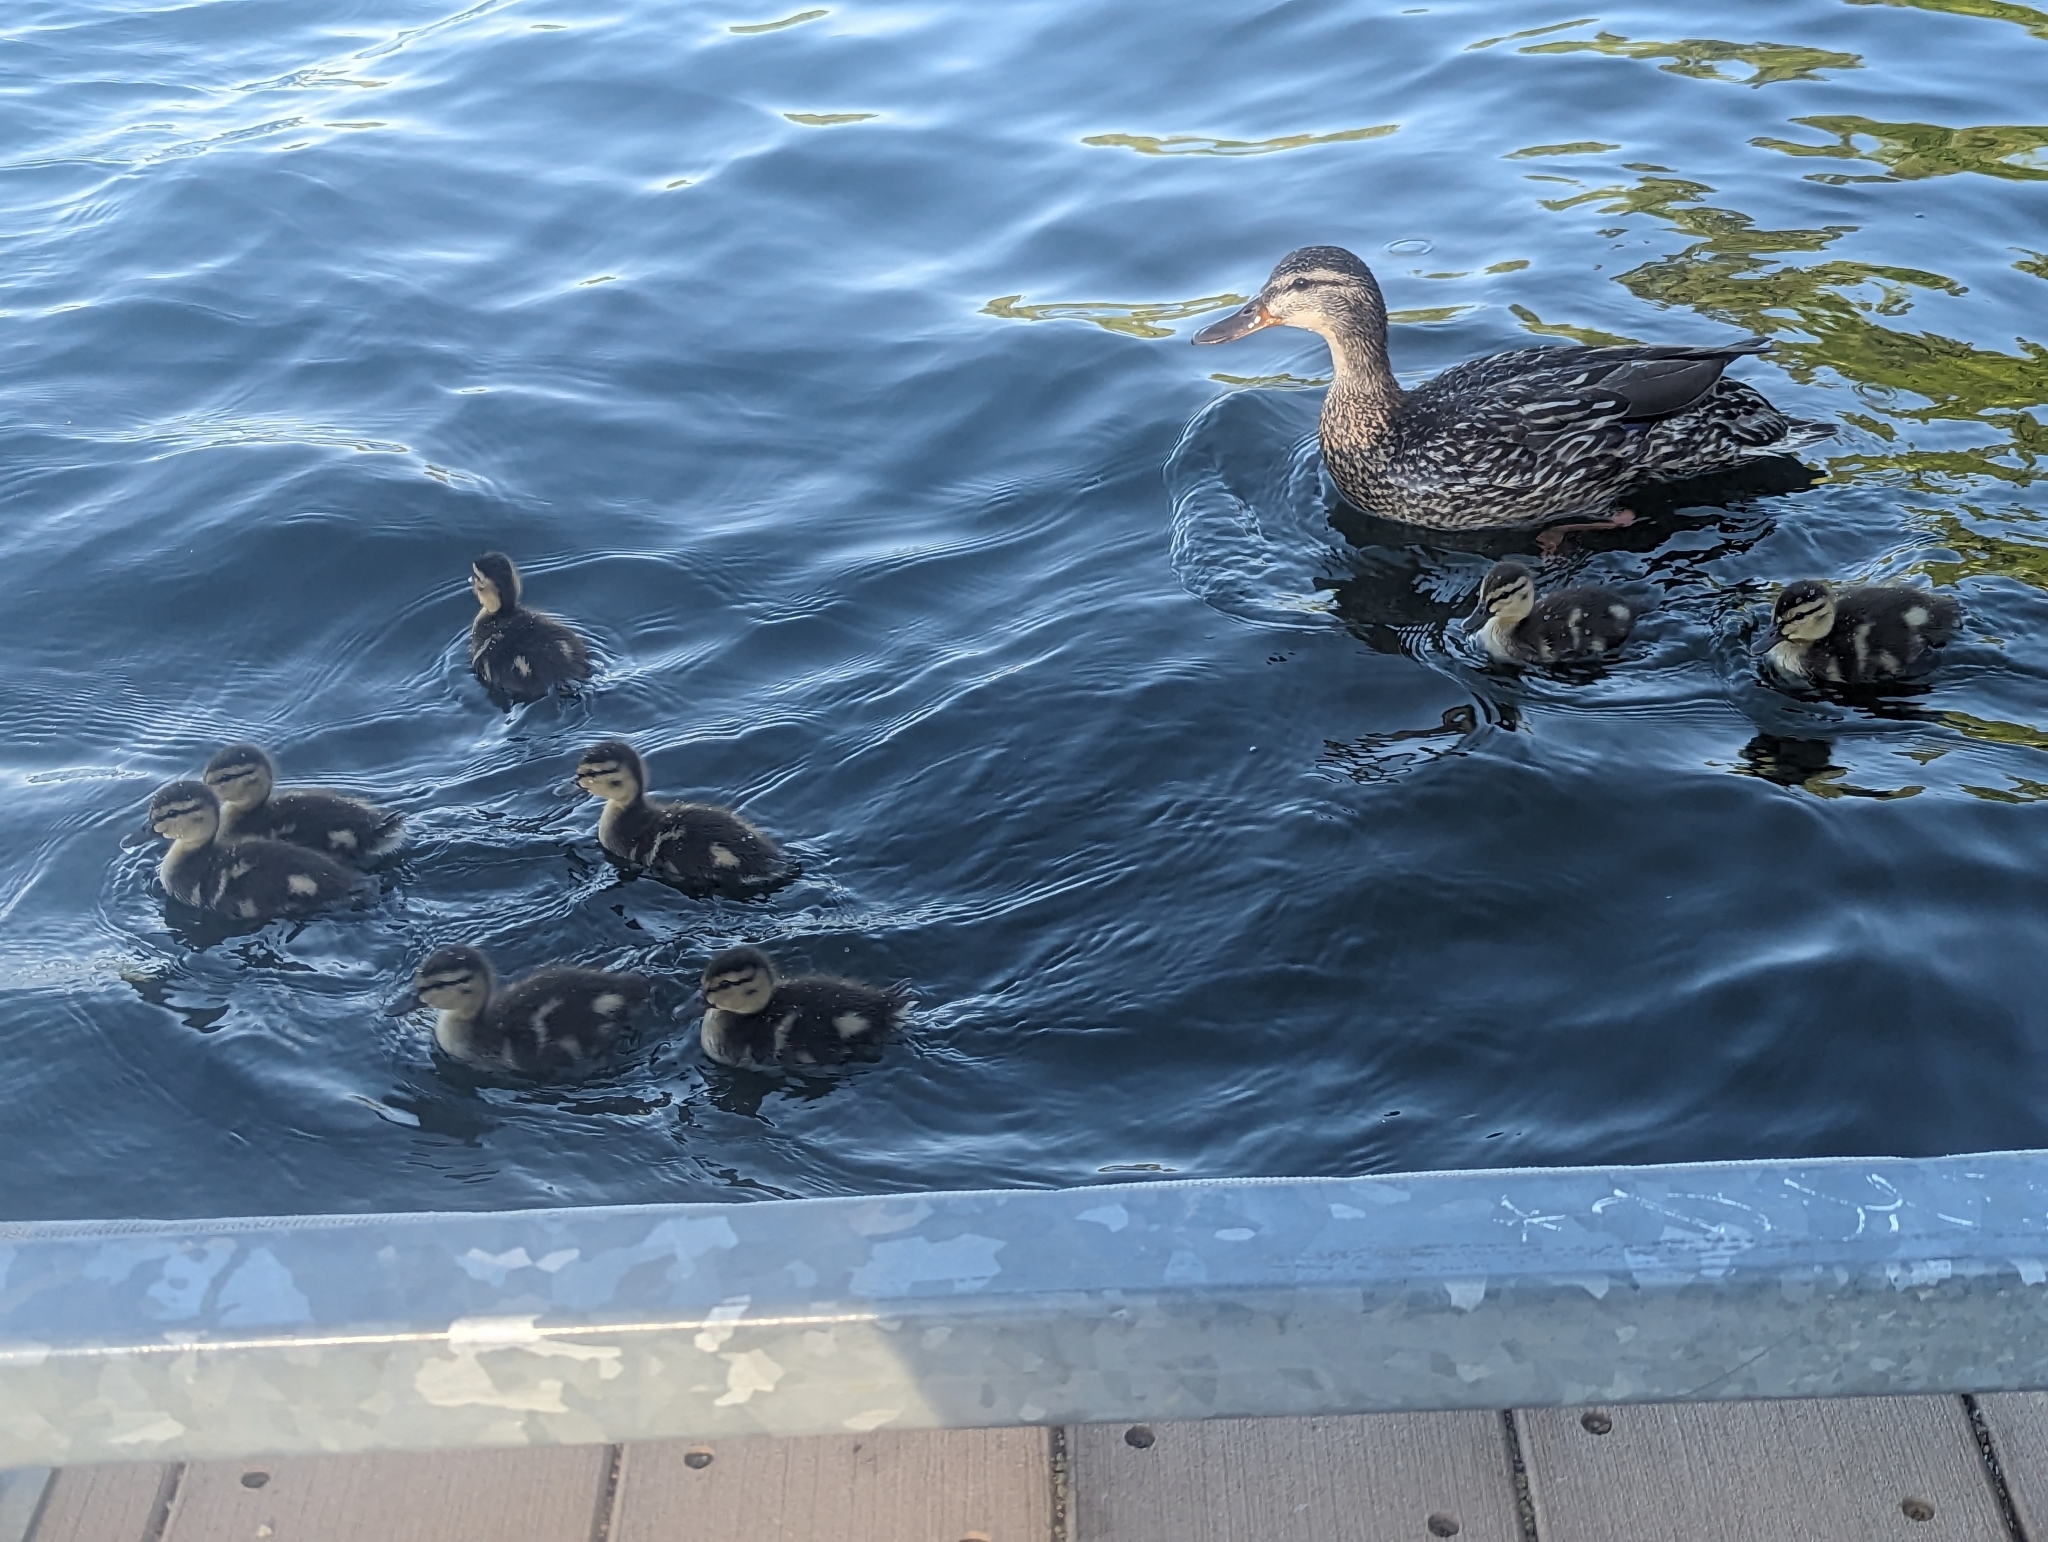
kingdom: Animalia
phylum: Chordata
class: Aves
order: Anseriformes
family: Anatidae
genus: Anas
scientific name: Anas platyrhynchos
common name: Mallard
